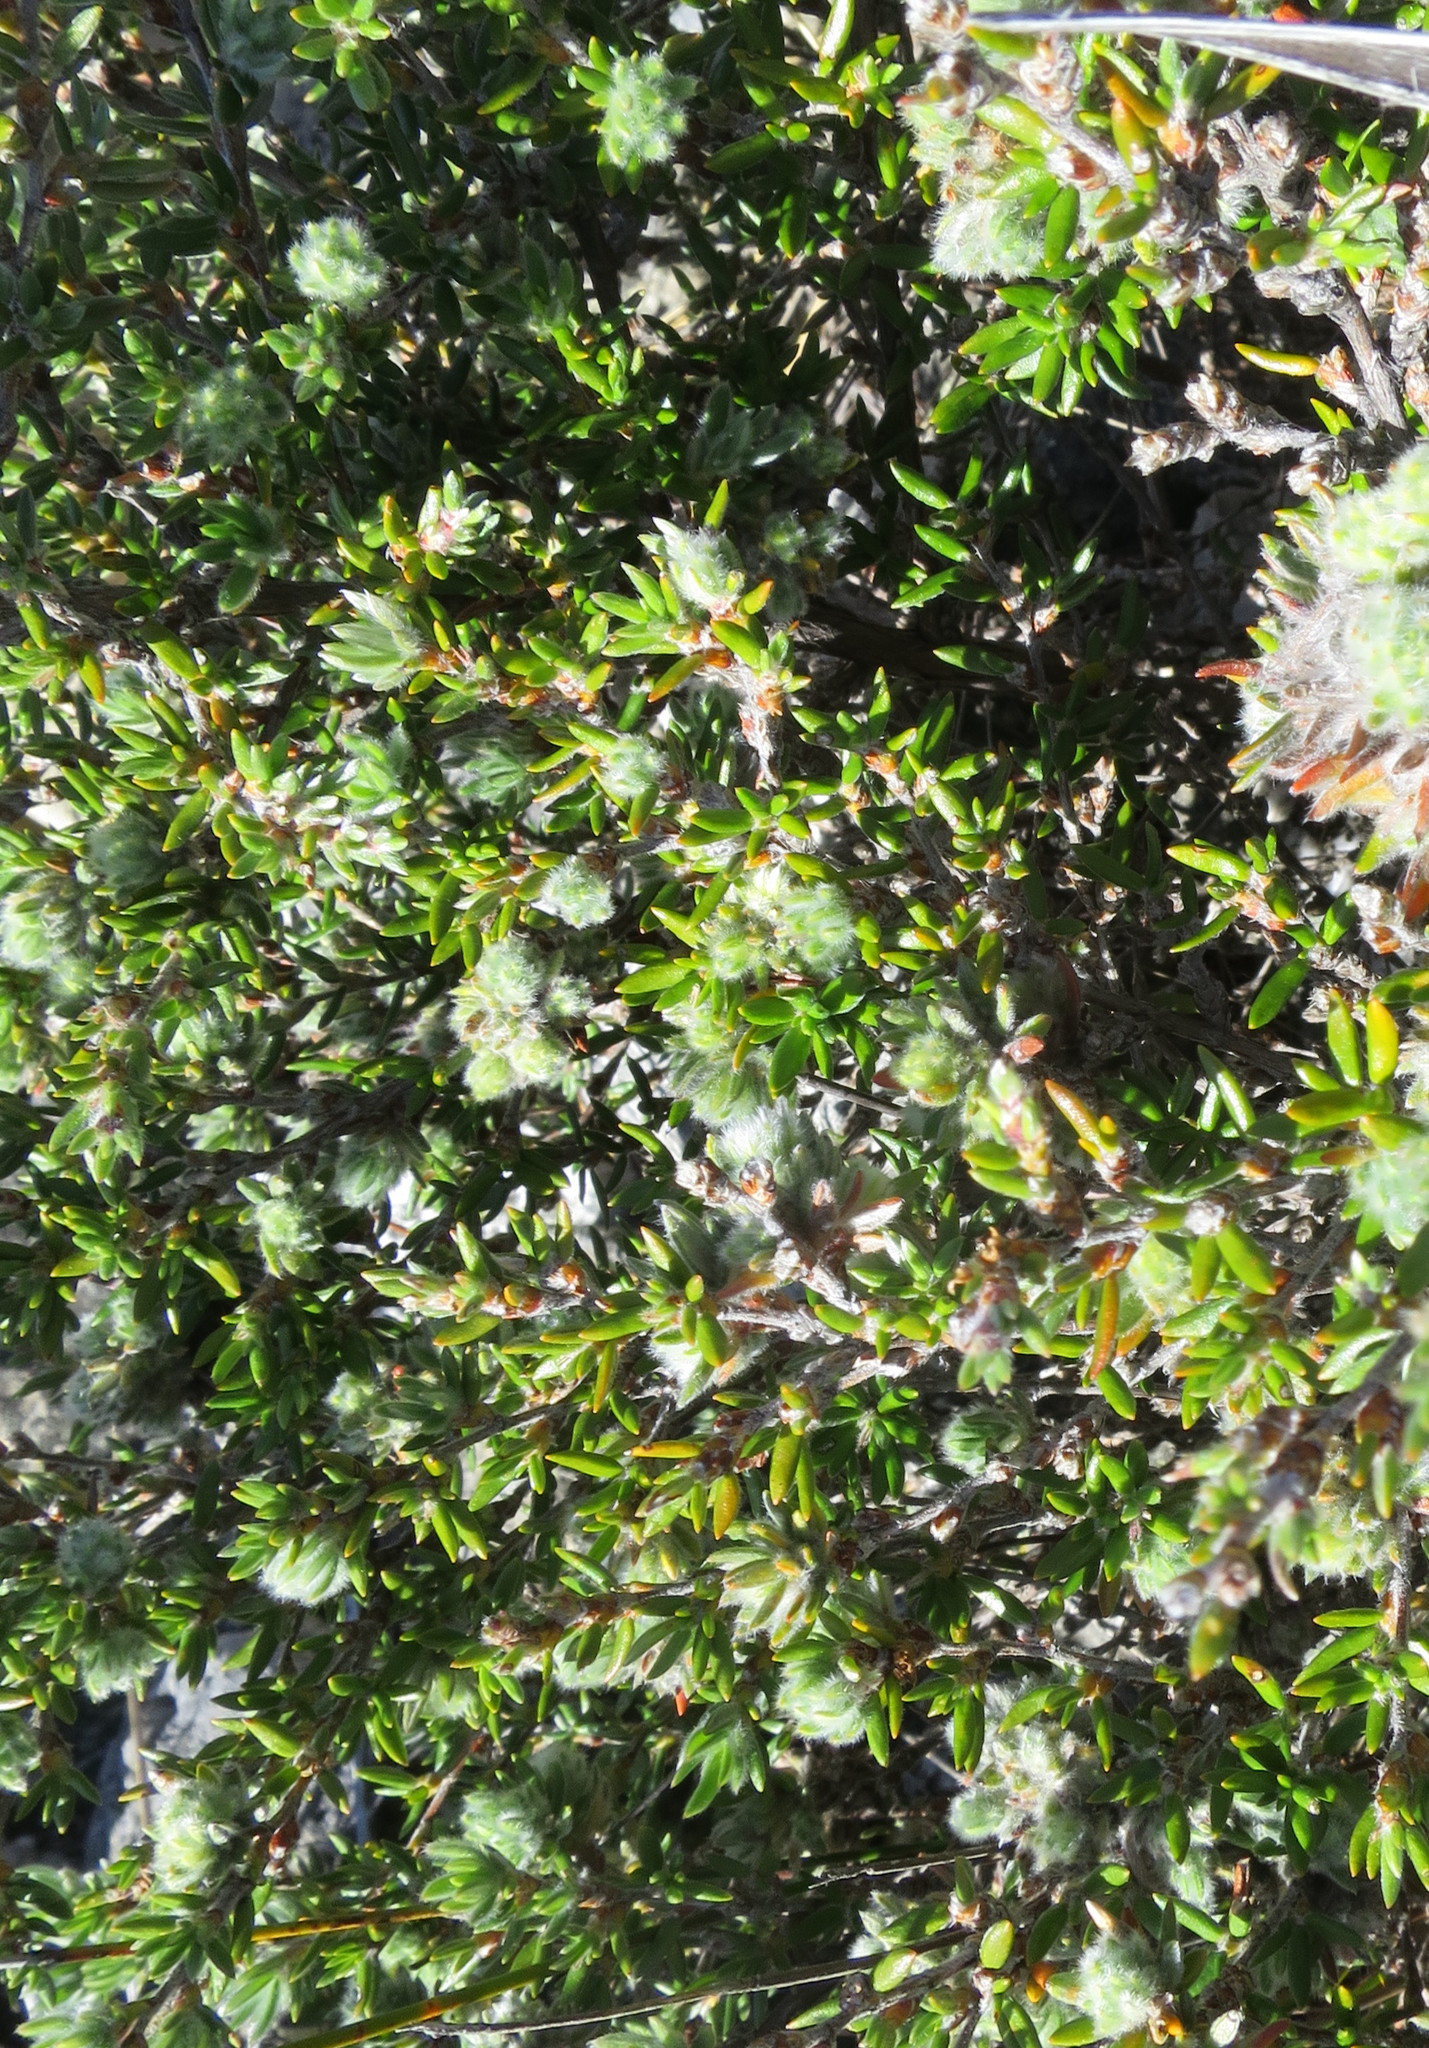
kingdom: Plantae
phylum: Tracheophyta
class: Magnoliopsida
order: Rosales
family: Rosaceae
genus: Cliffortia
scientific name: Cliffortia dispar
